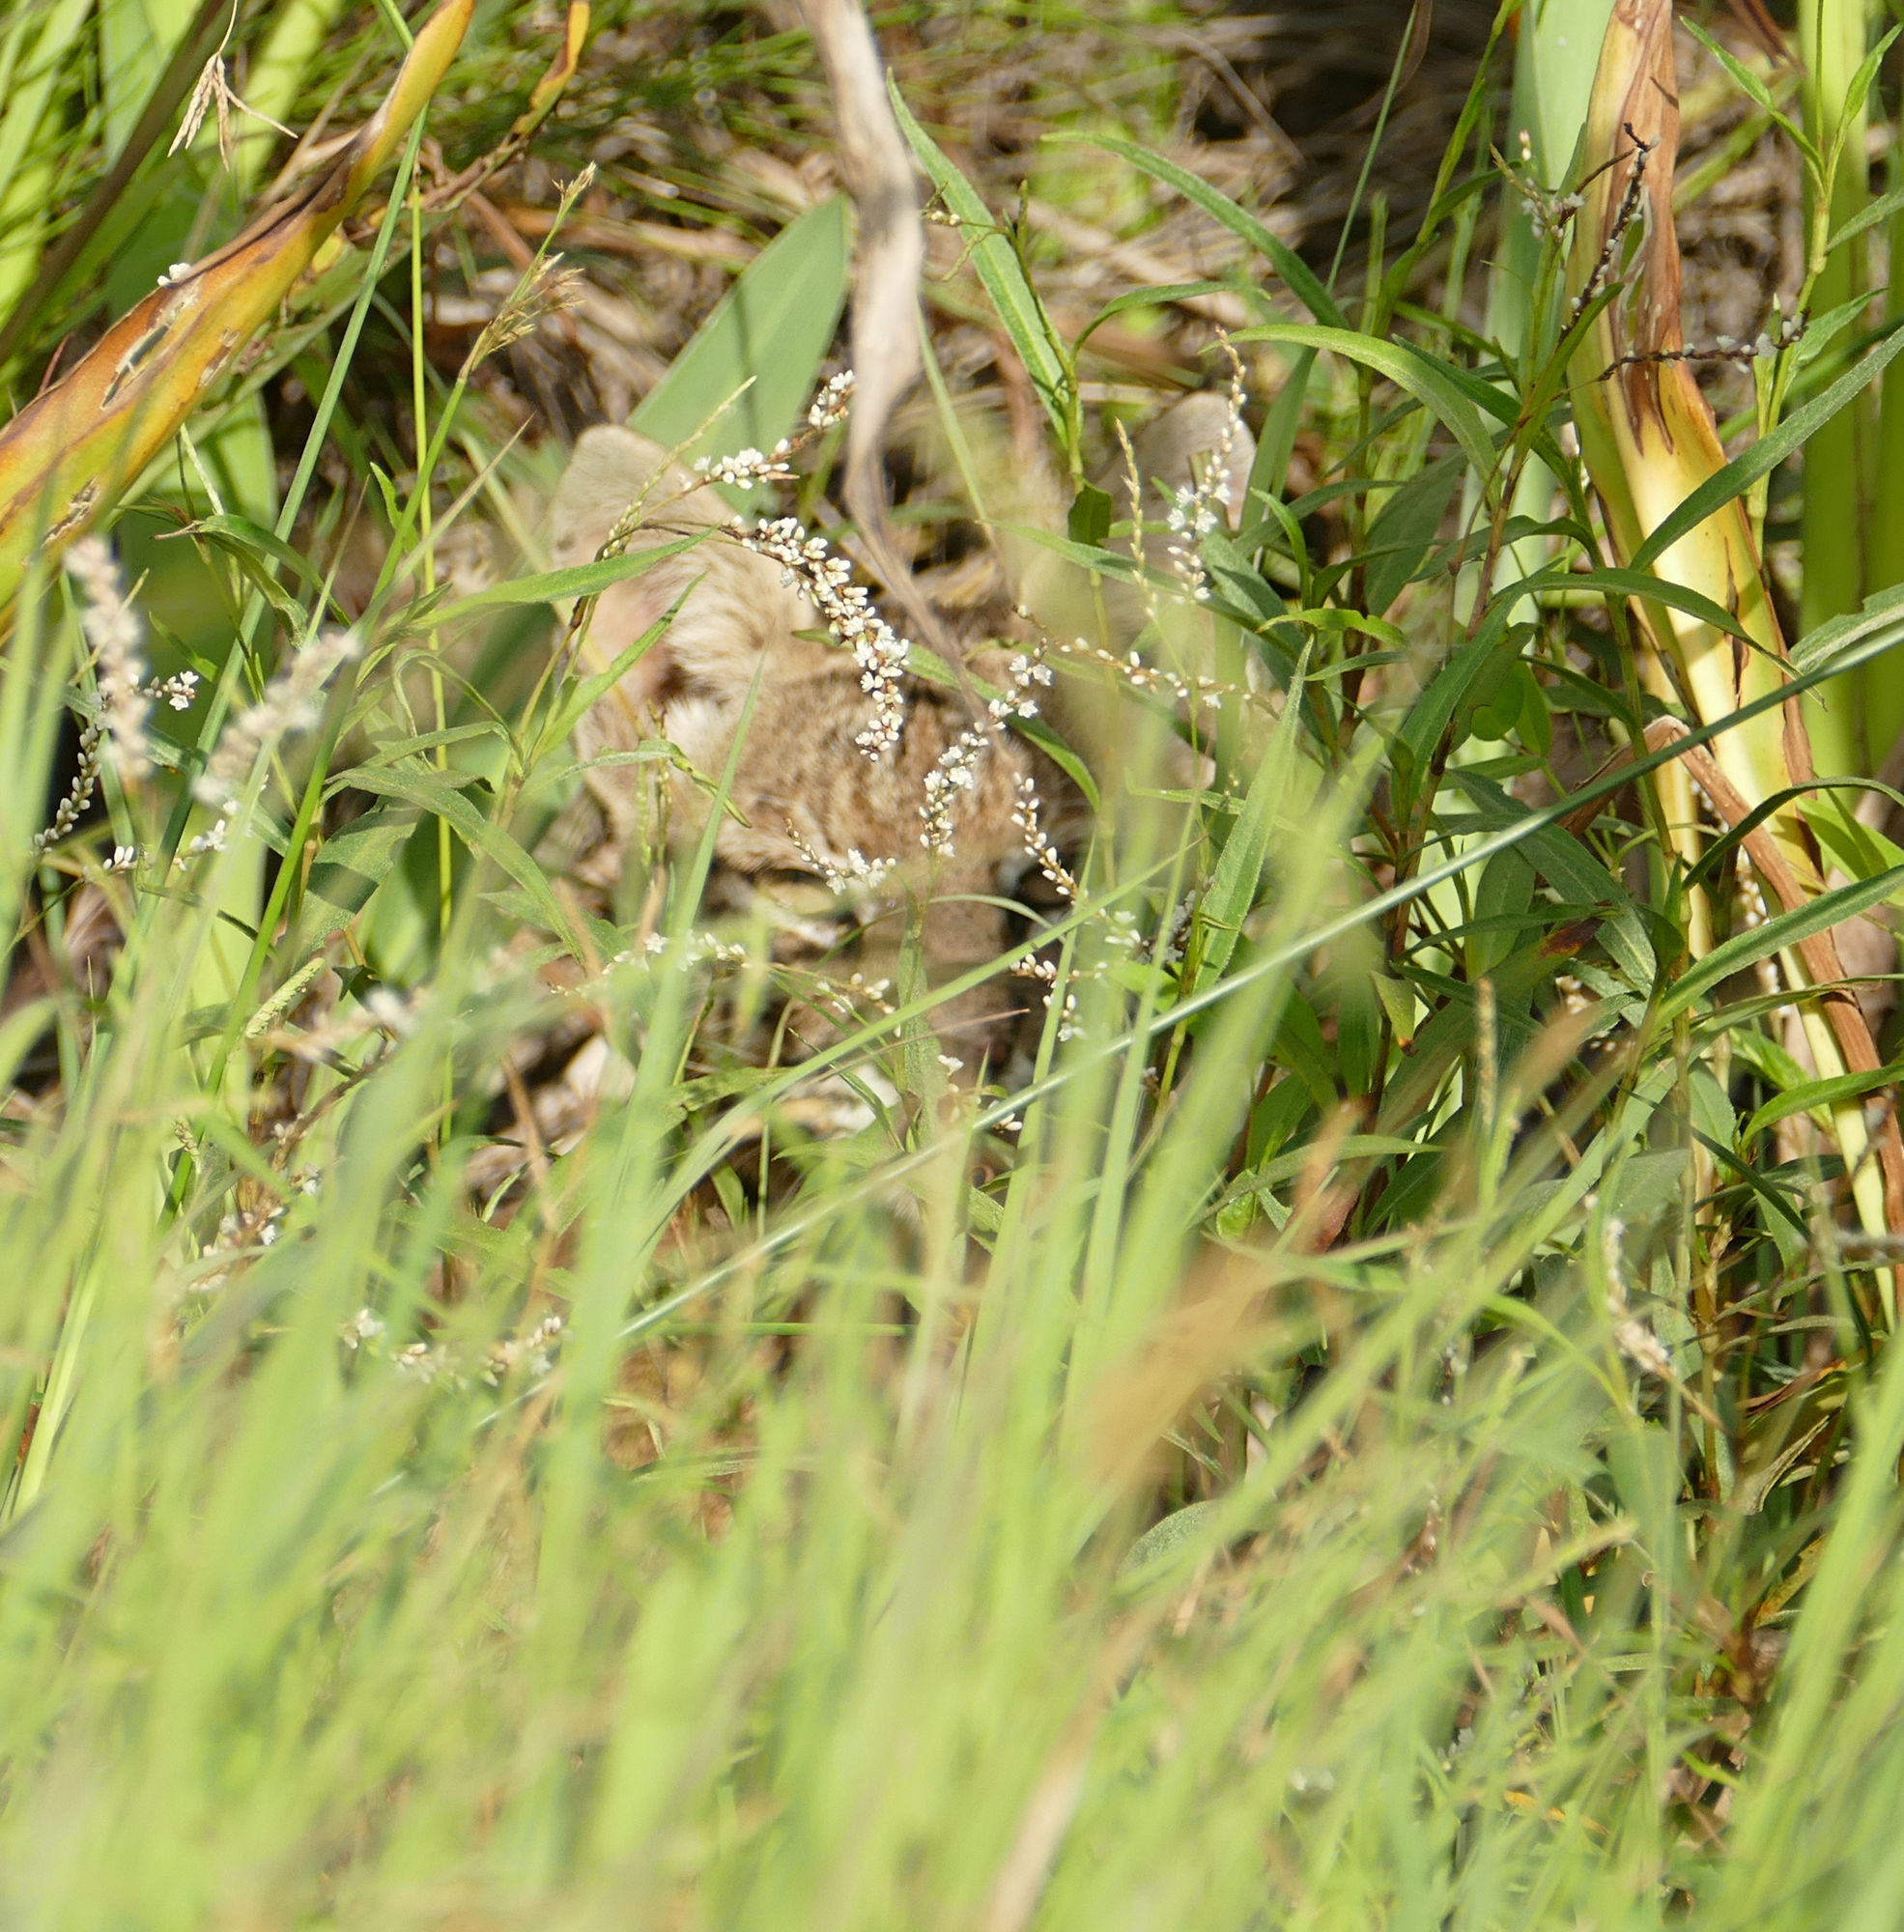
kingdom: Animalia
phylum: Chordata
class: Mammalia
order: Carnivora
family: Felidae
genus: Lynx
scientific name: Lynx rufus
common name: Bobcat
